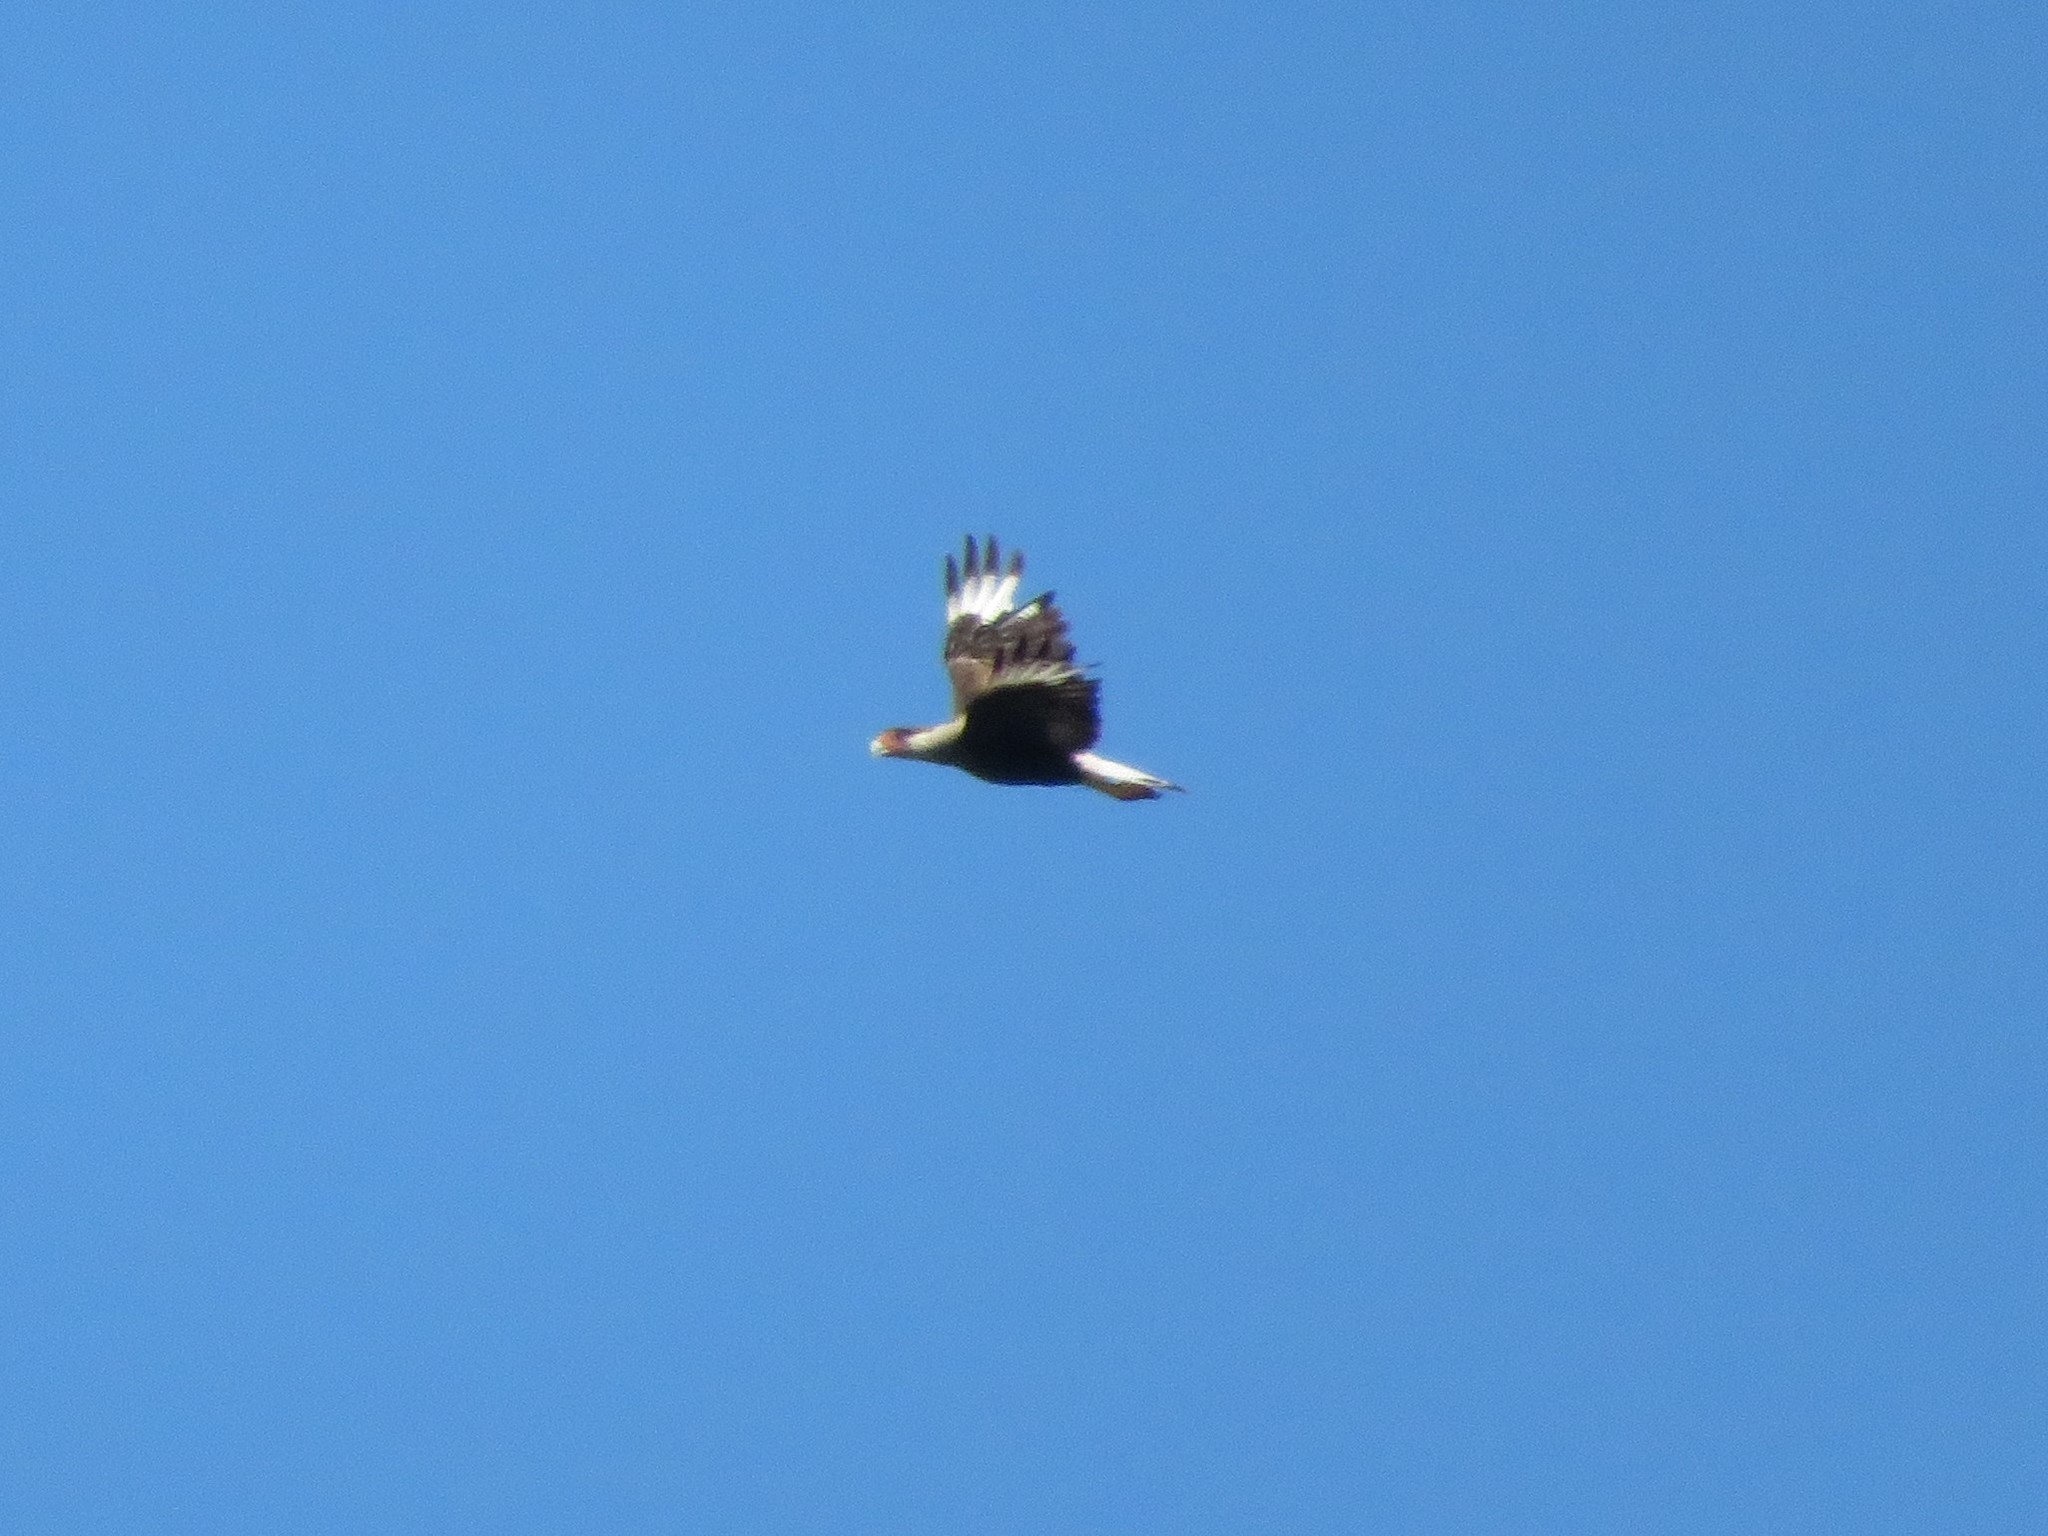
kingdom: Animalia
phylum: Chordata
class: Aves
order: Falconiformes
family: Falconidae
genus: Caracara
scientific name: Caracara plancus
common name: Southern caracara
